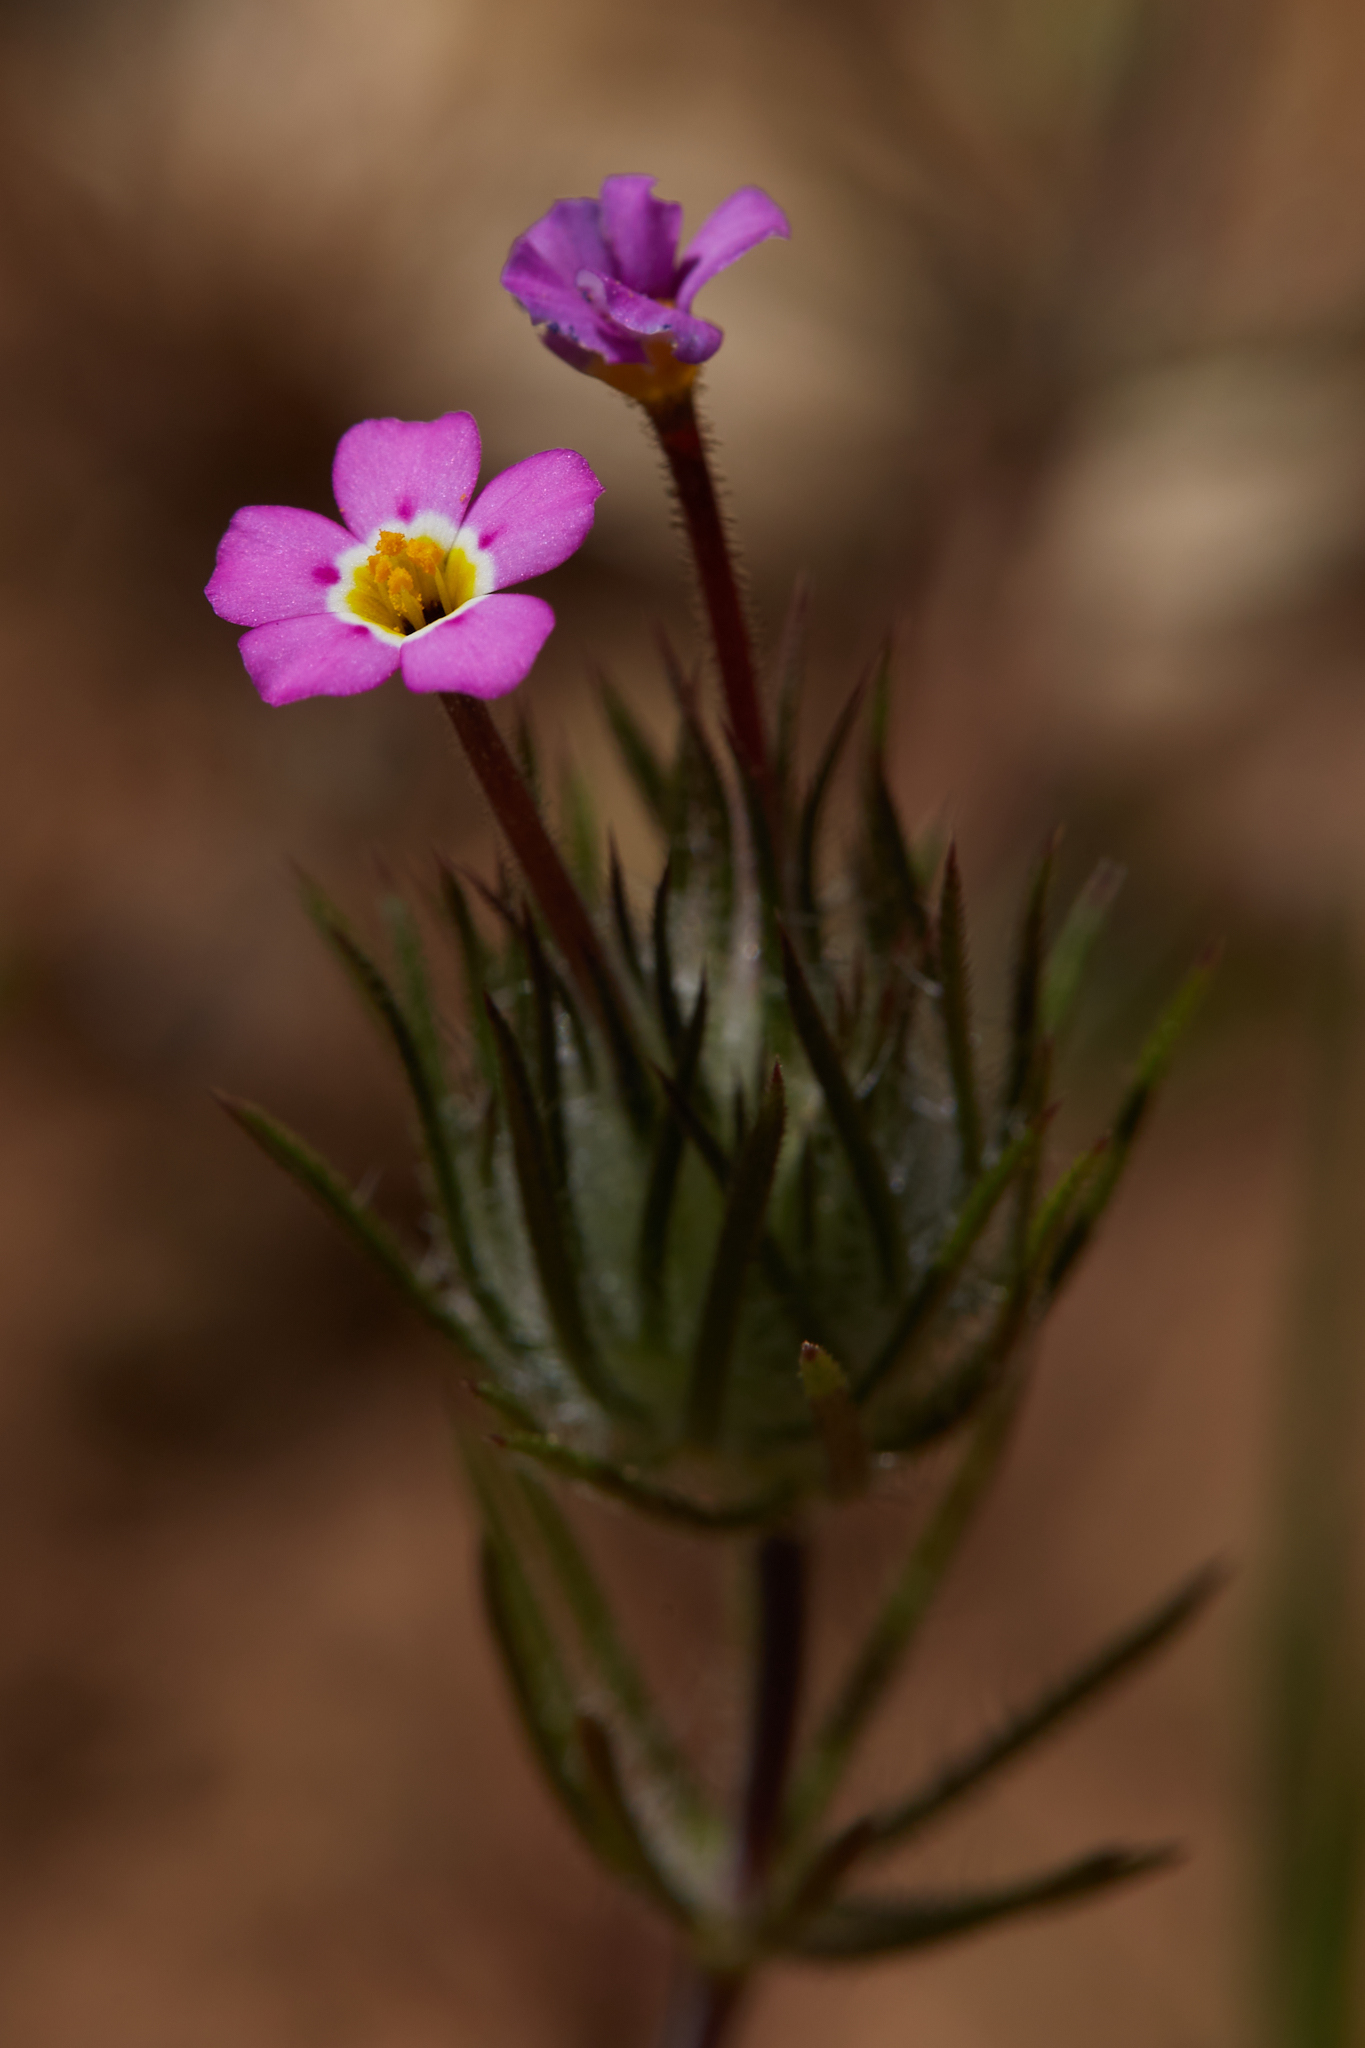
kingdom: Plantae
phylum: Tracheophyta
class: Magnoliopsida
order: Ericales
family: Polemoniaceae
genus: Leptosiphon
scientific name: Leptosiphon ciliatus
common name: Whiskerbrush
